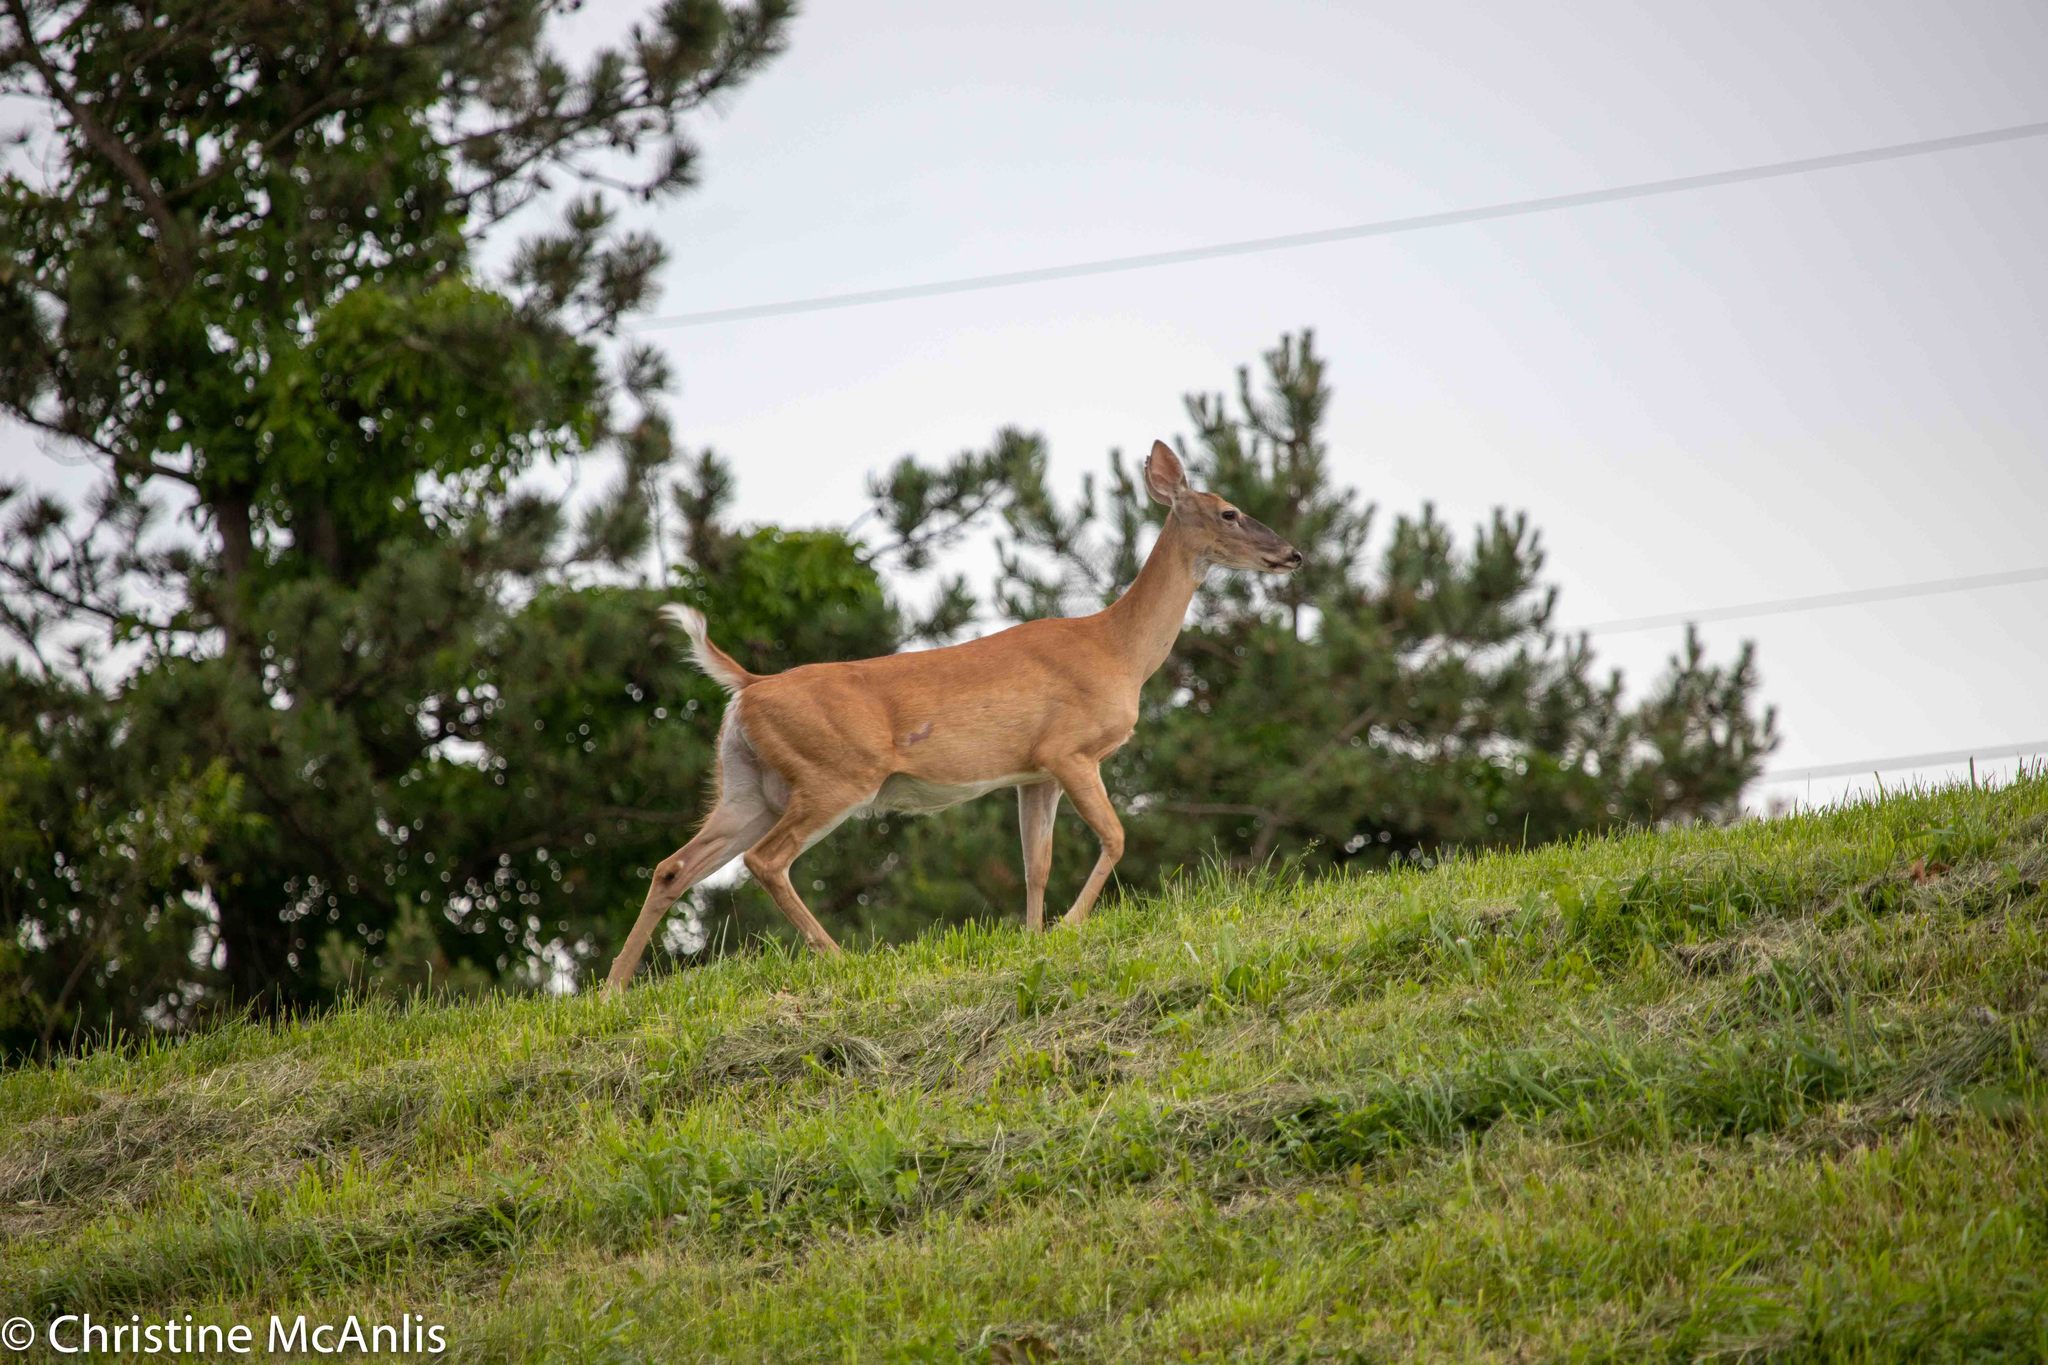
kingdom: Animalia
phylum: Chordata
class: Mammalia
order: Artiodactyla
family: Cervidae
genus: Odocoileus
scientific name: Odocoileus virginianus
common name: White-tailed deer
